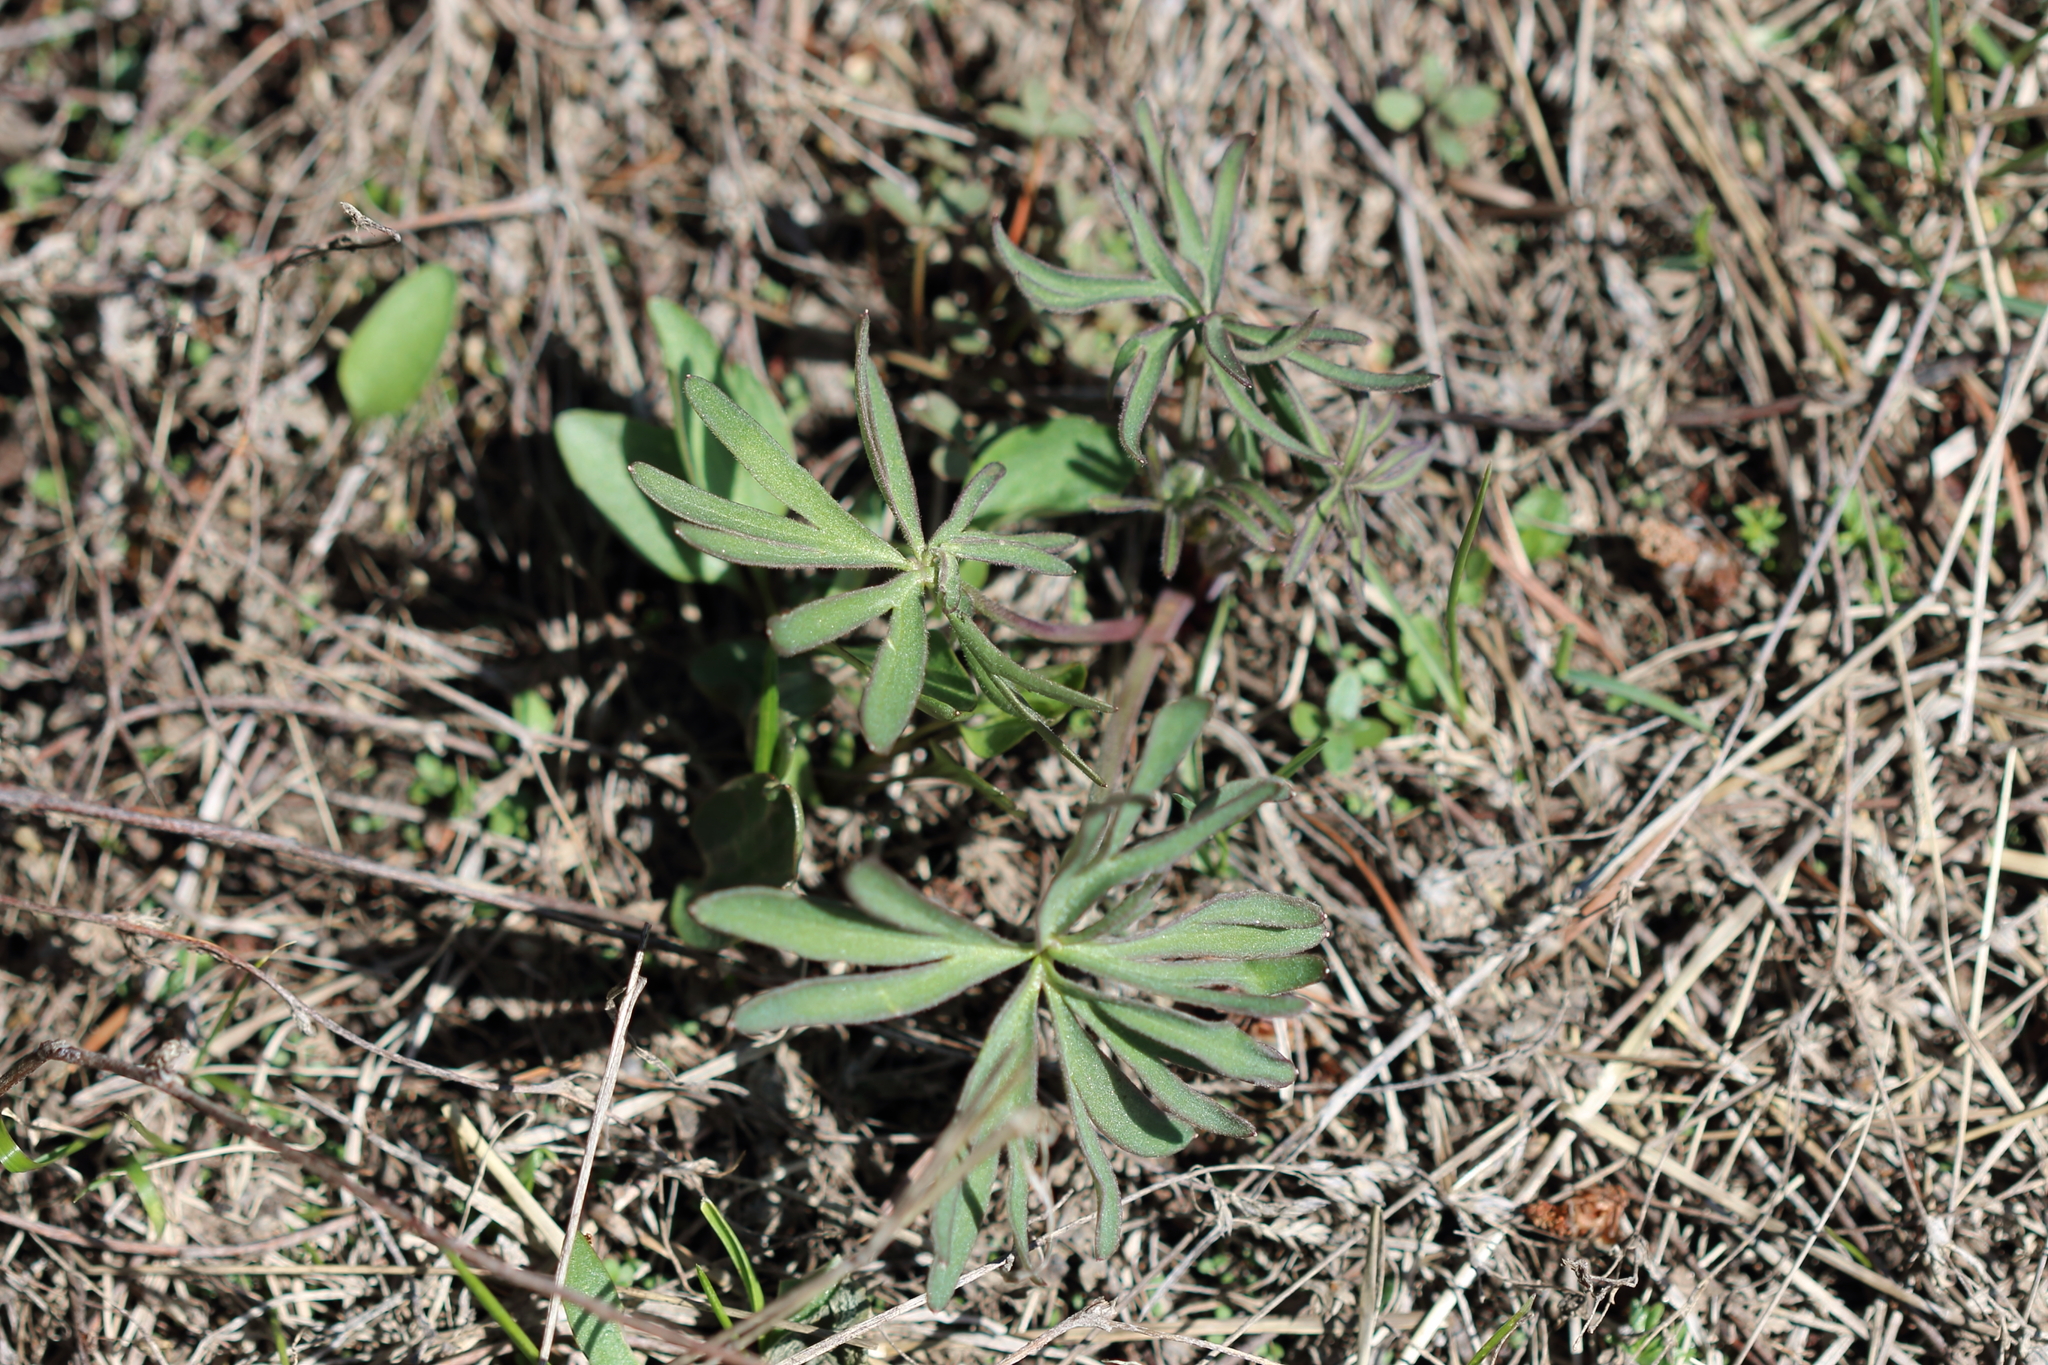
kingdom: Plantae
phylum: Tracheophyta
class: Magnoliopsida
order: Ranunculales
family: Ranunculaceae
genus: Delphinium
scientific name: Delphinium nuttallianum
